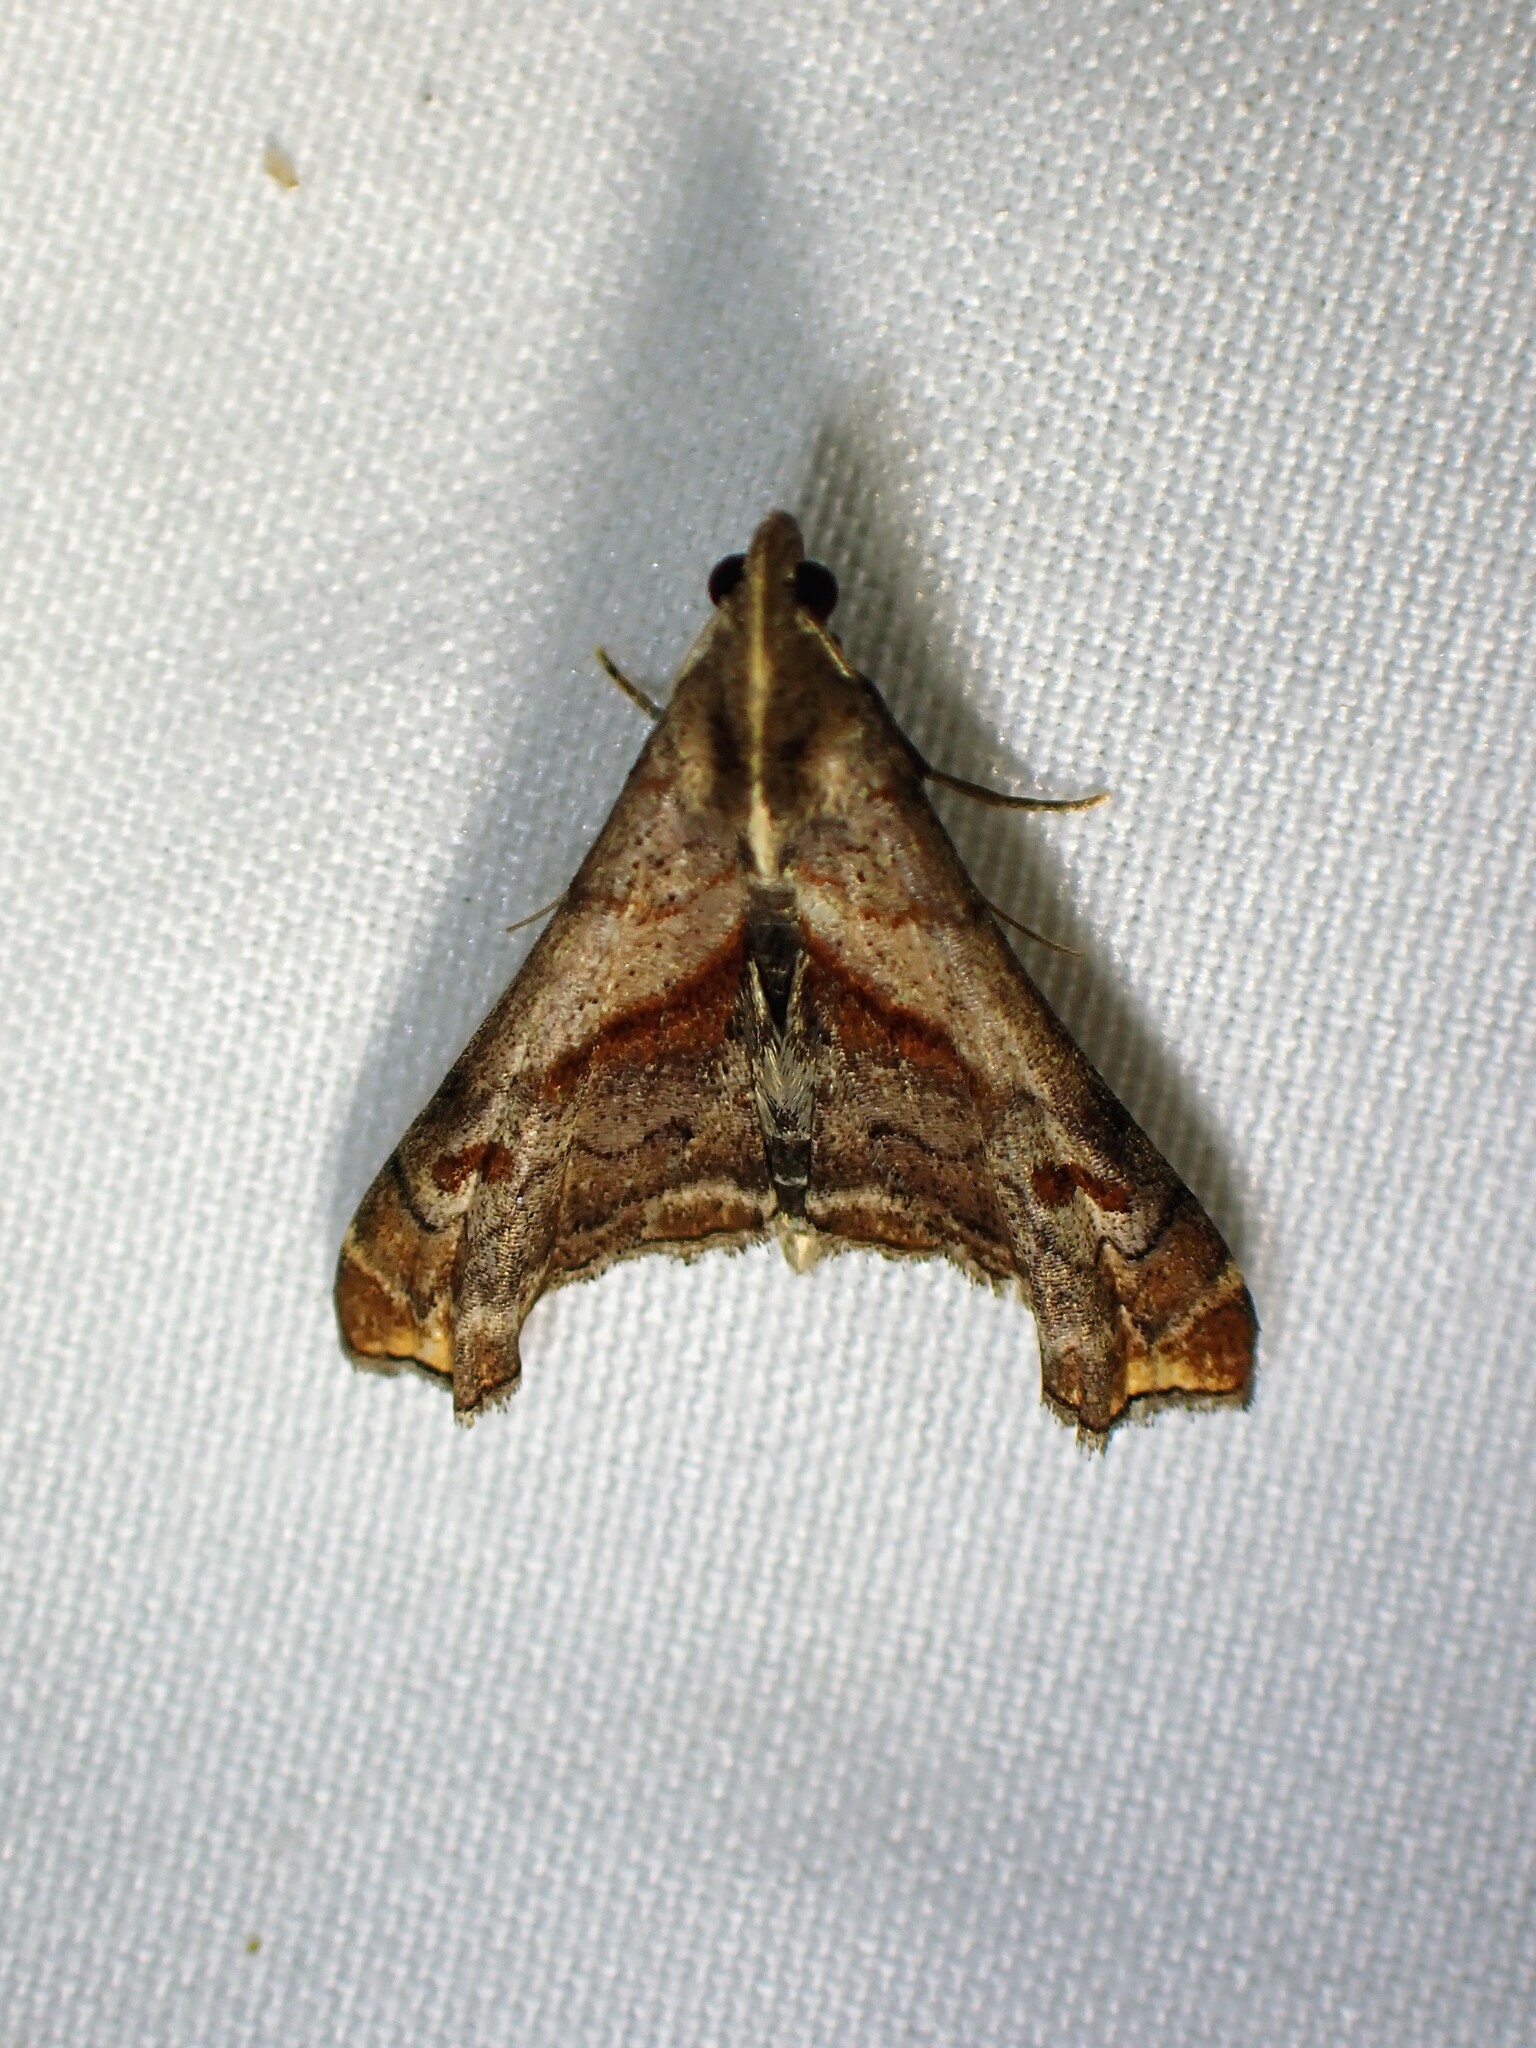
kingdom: Animalia
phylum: Arthropoda
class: Insecta
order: Lepidoptera
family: Erebidae
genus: Palthis
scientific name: Palthis angulalis
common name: Dark-spotted palthis moth
